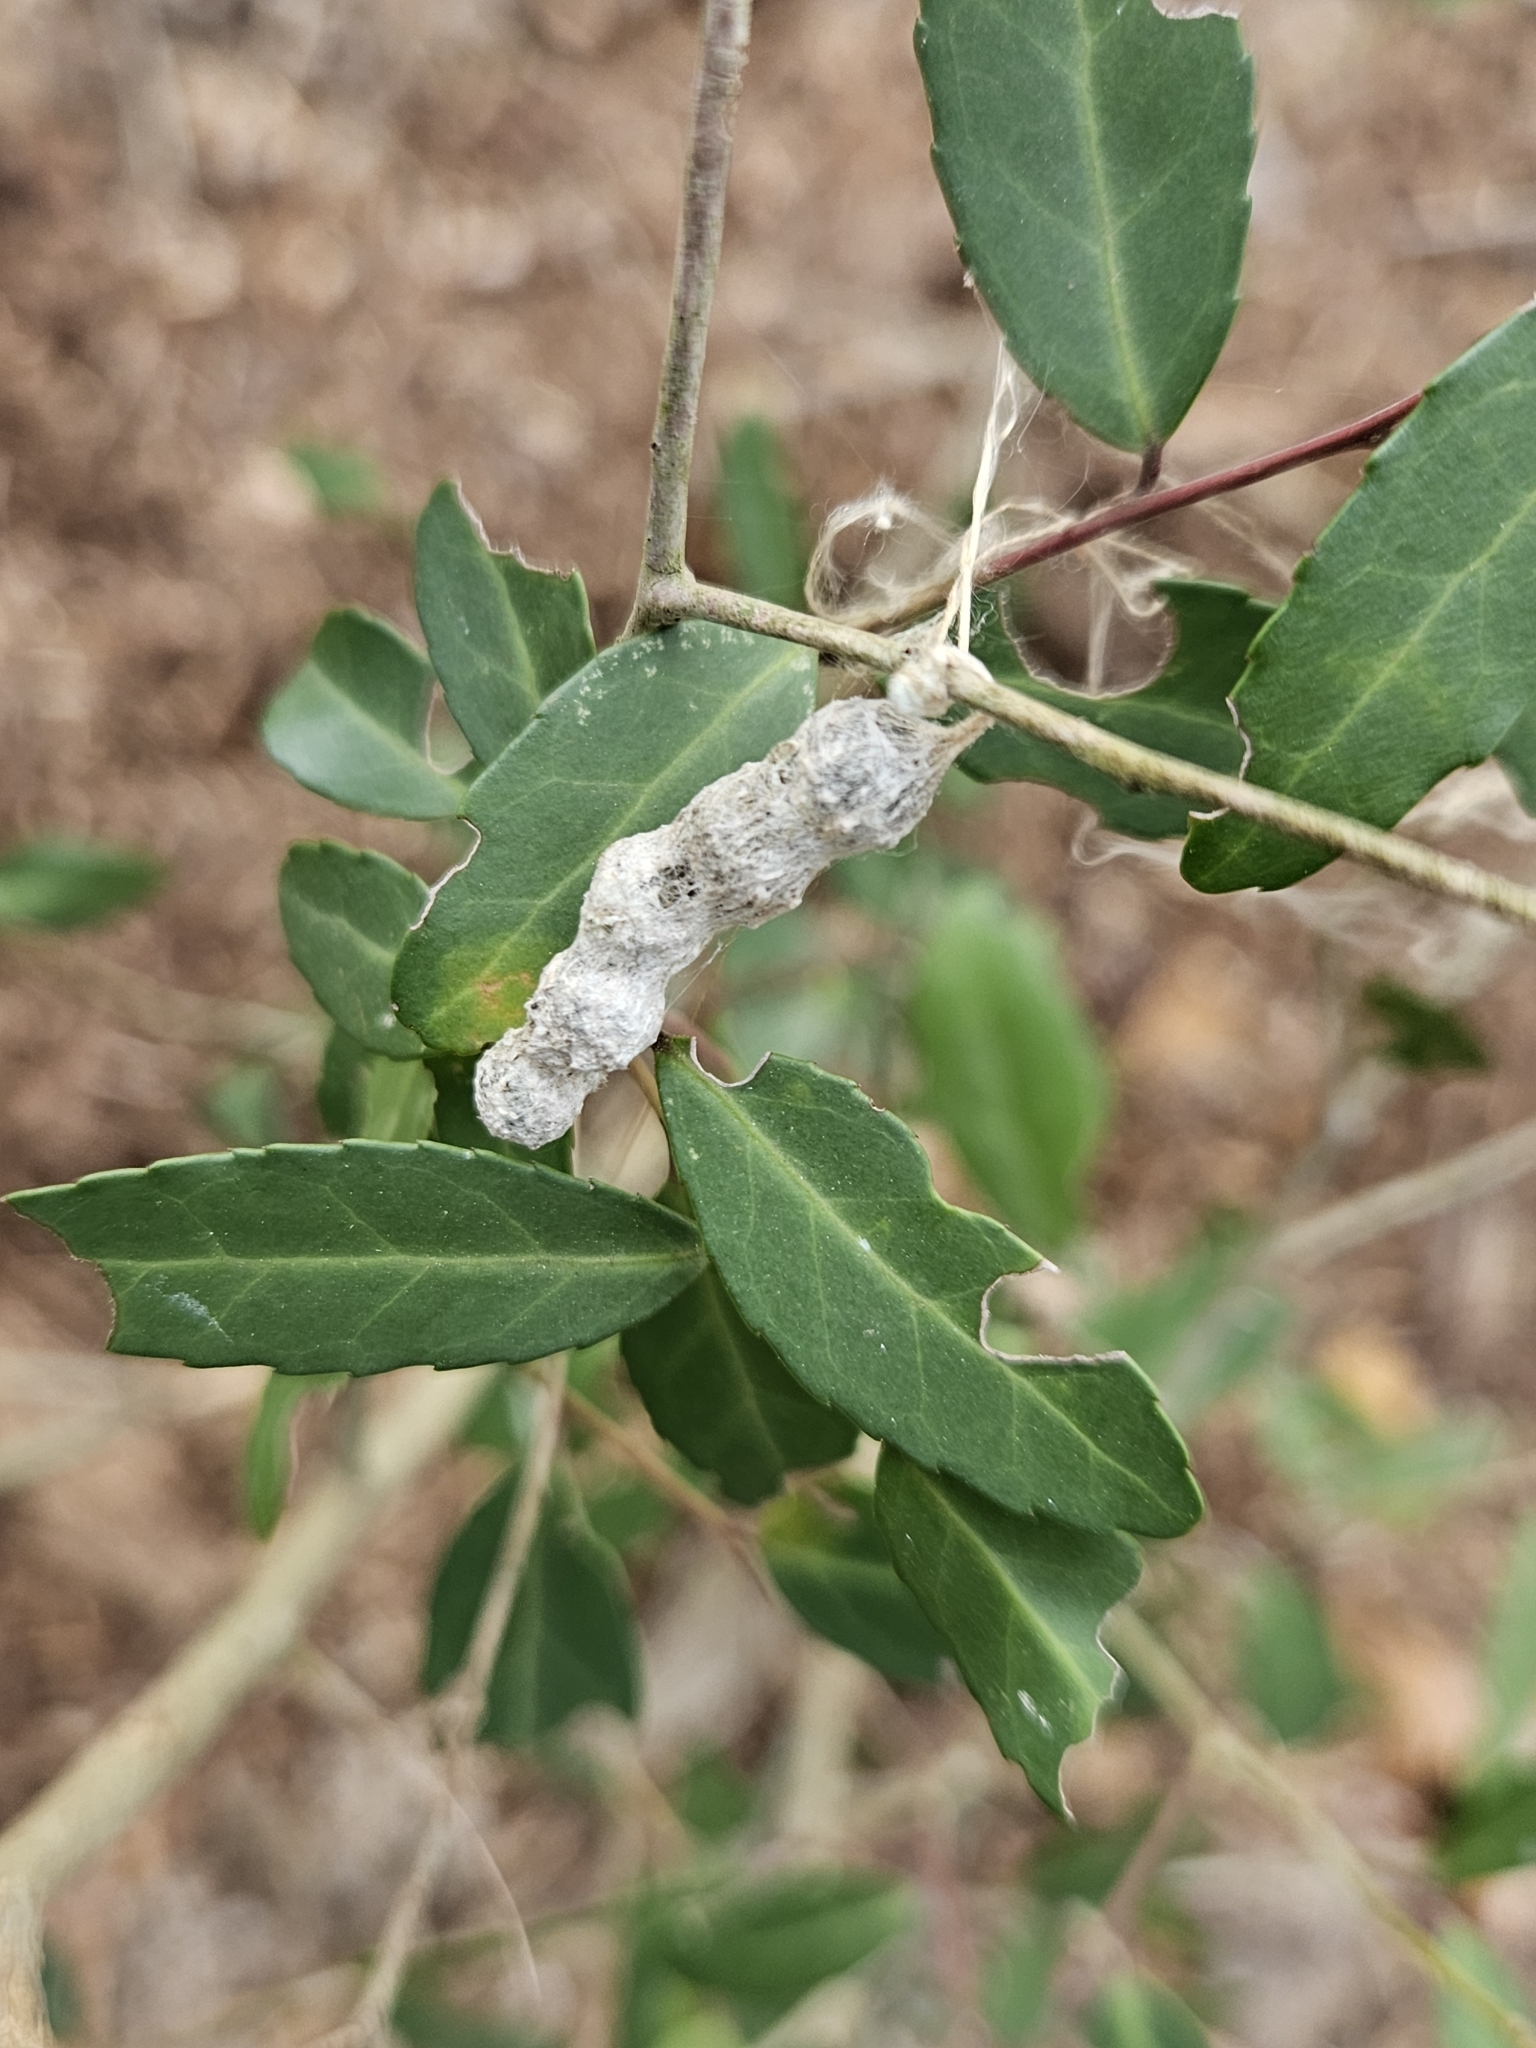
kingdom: Animalia
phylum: Arthropoda
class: Arachnida
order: Araneae
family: Araneidae
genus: Mecynogea
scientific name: Mecynogea lemniscata
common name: Orb weavers
